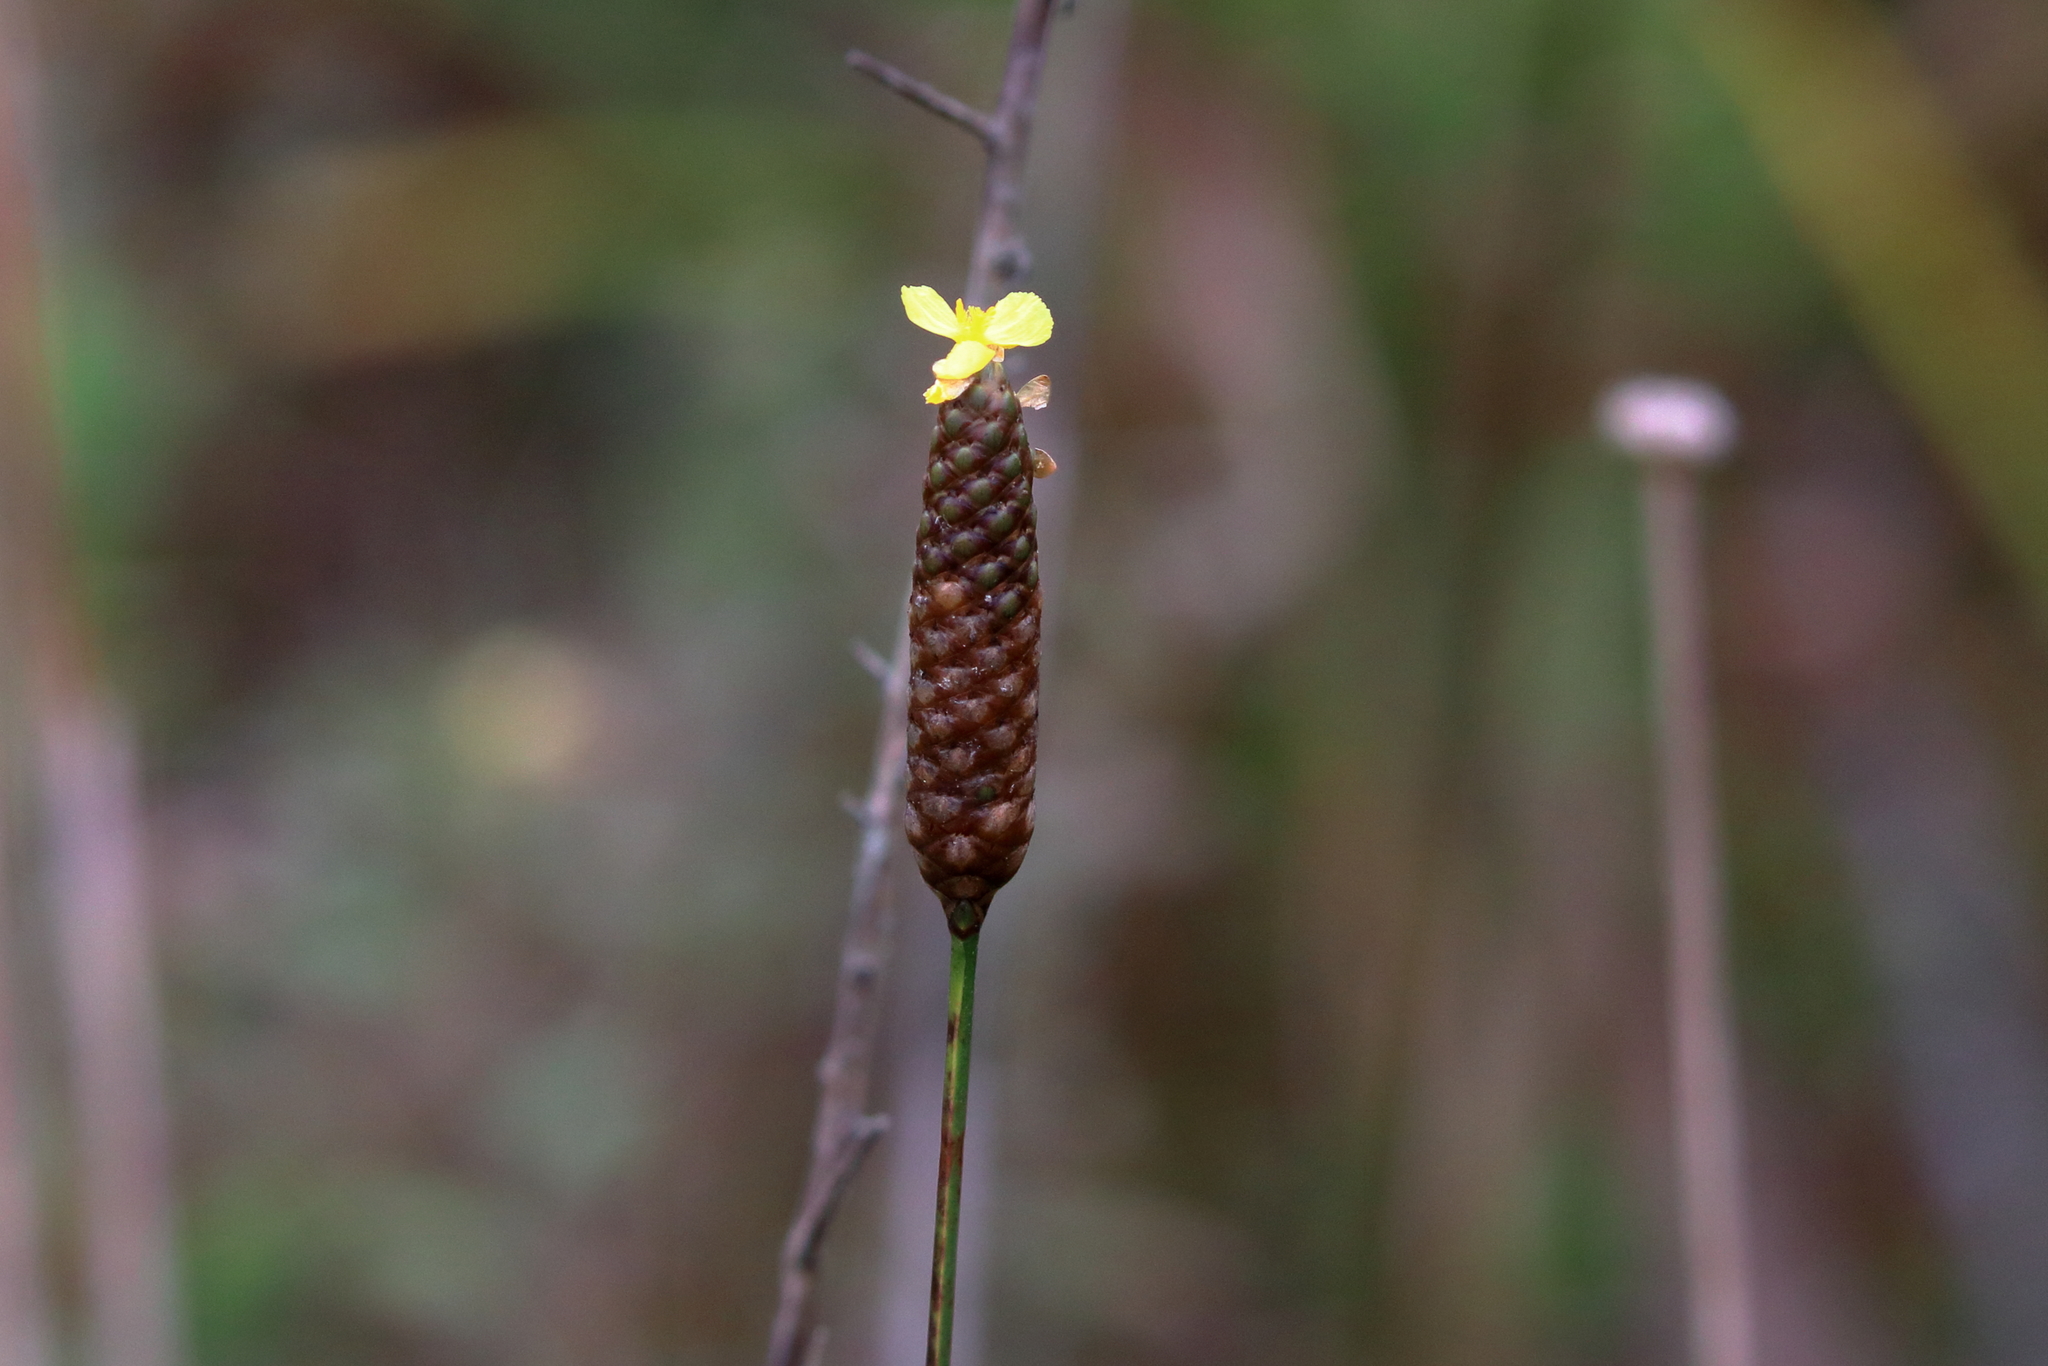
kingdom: Plantae
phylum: Tracheophyta
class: Liliopsida
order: Poales
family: Xyridaceae
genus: Xyris
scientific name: Xyris stricta
